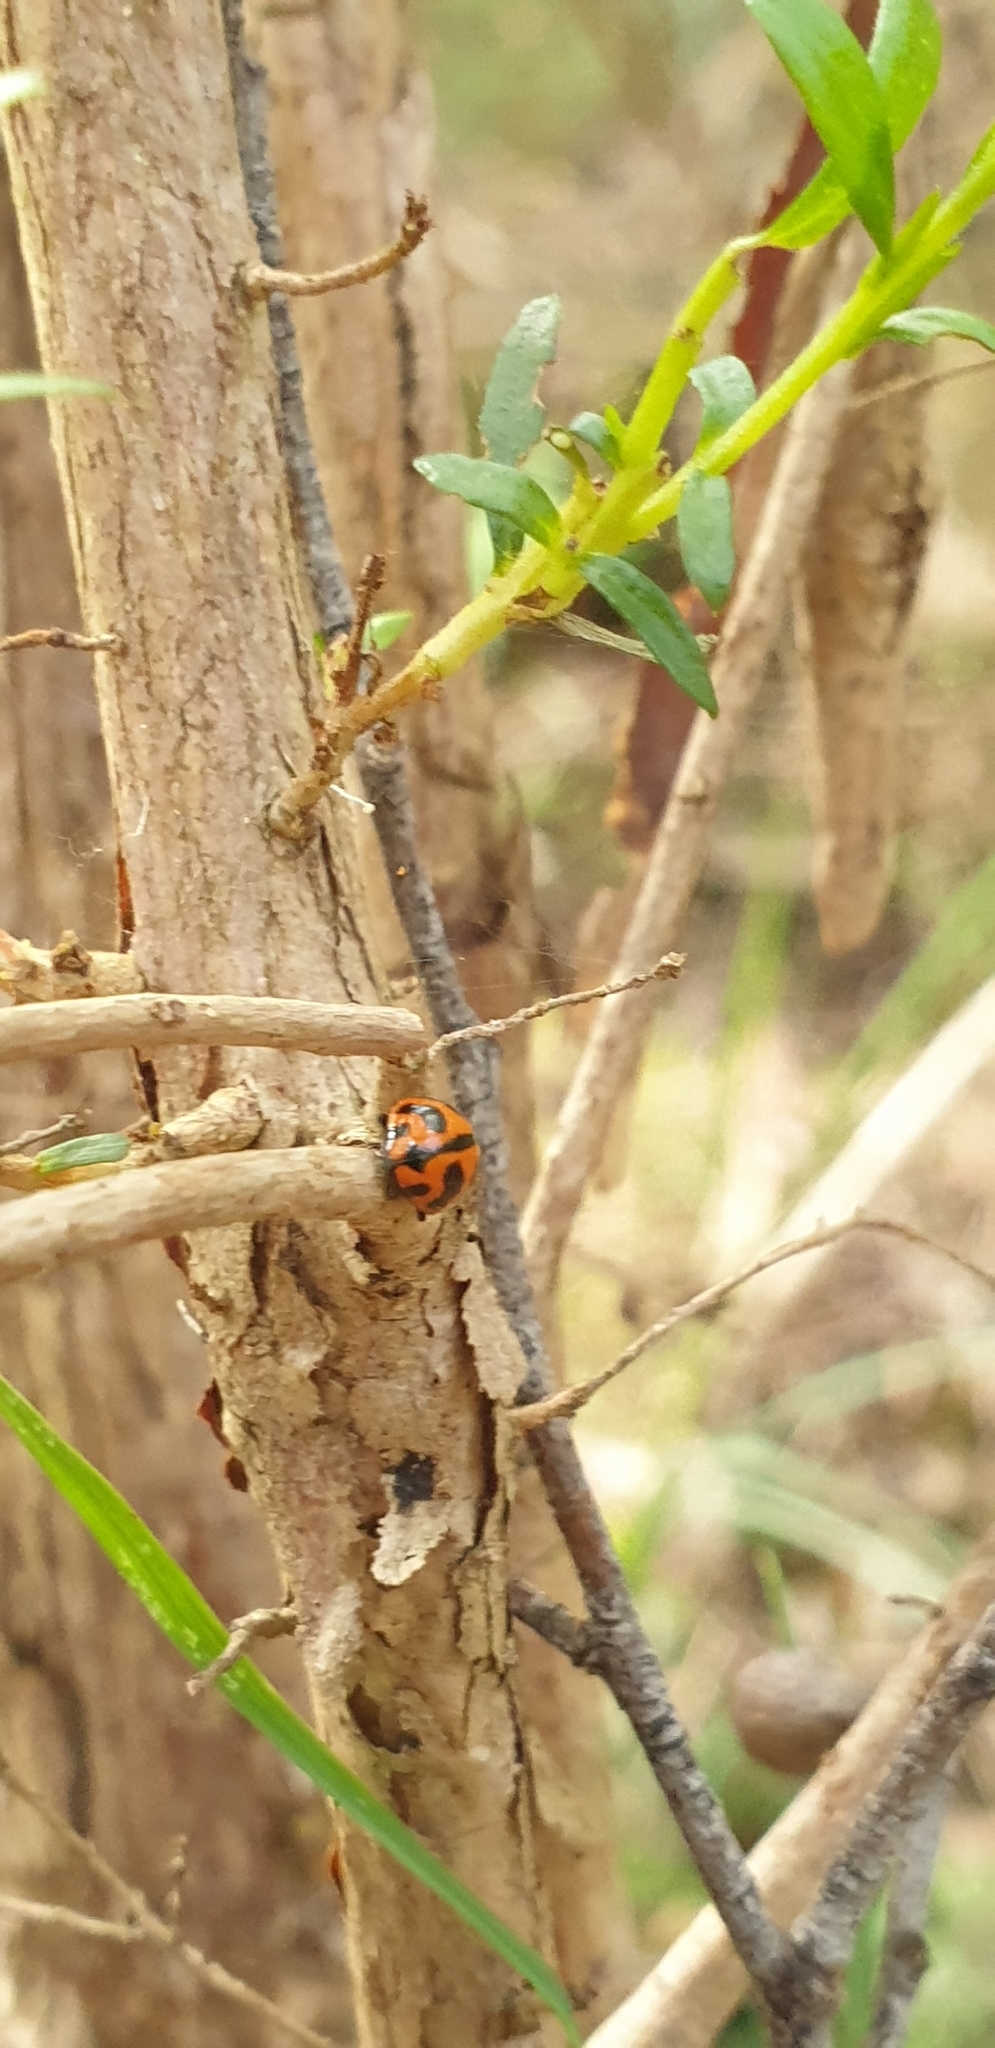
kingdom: Animalia
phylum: Arthropoda
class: Insecta
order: Coleoptera
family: Coccinellidae
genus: Coccinella
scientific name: Coccinella transversalis
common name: Transverse lady beetle
